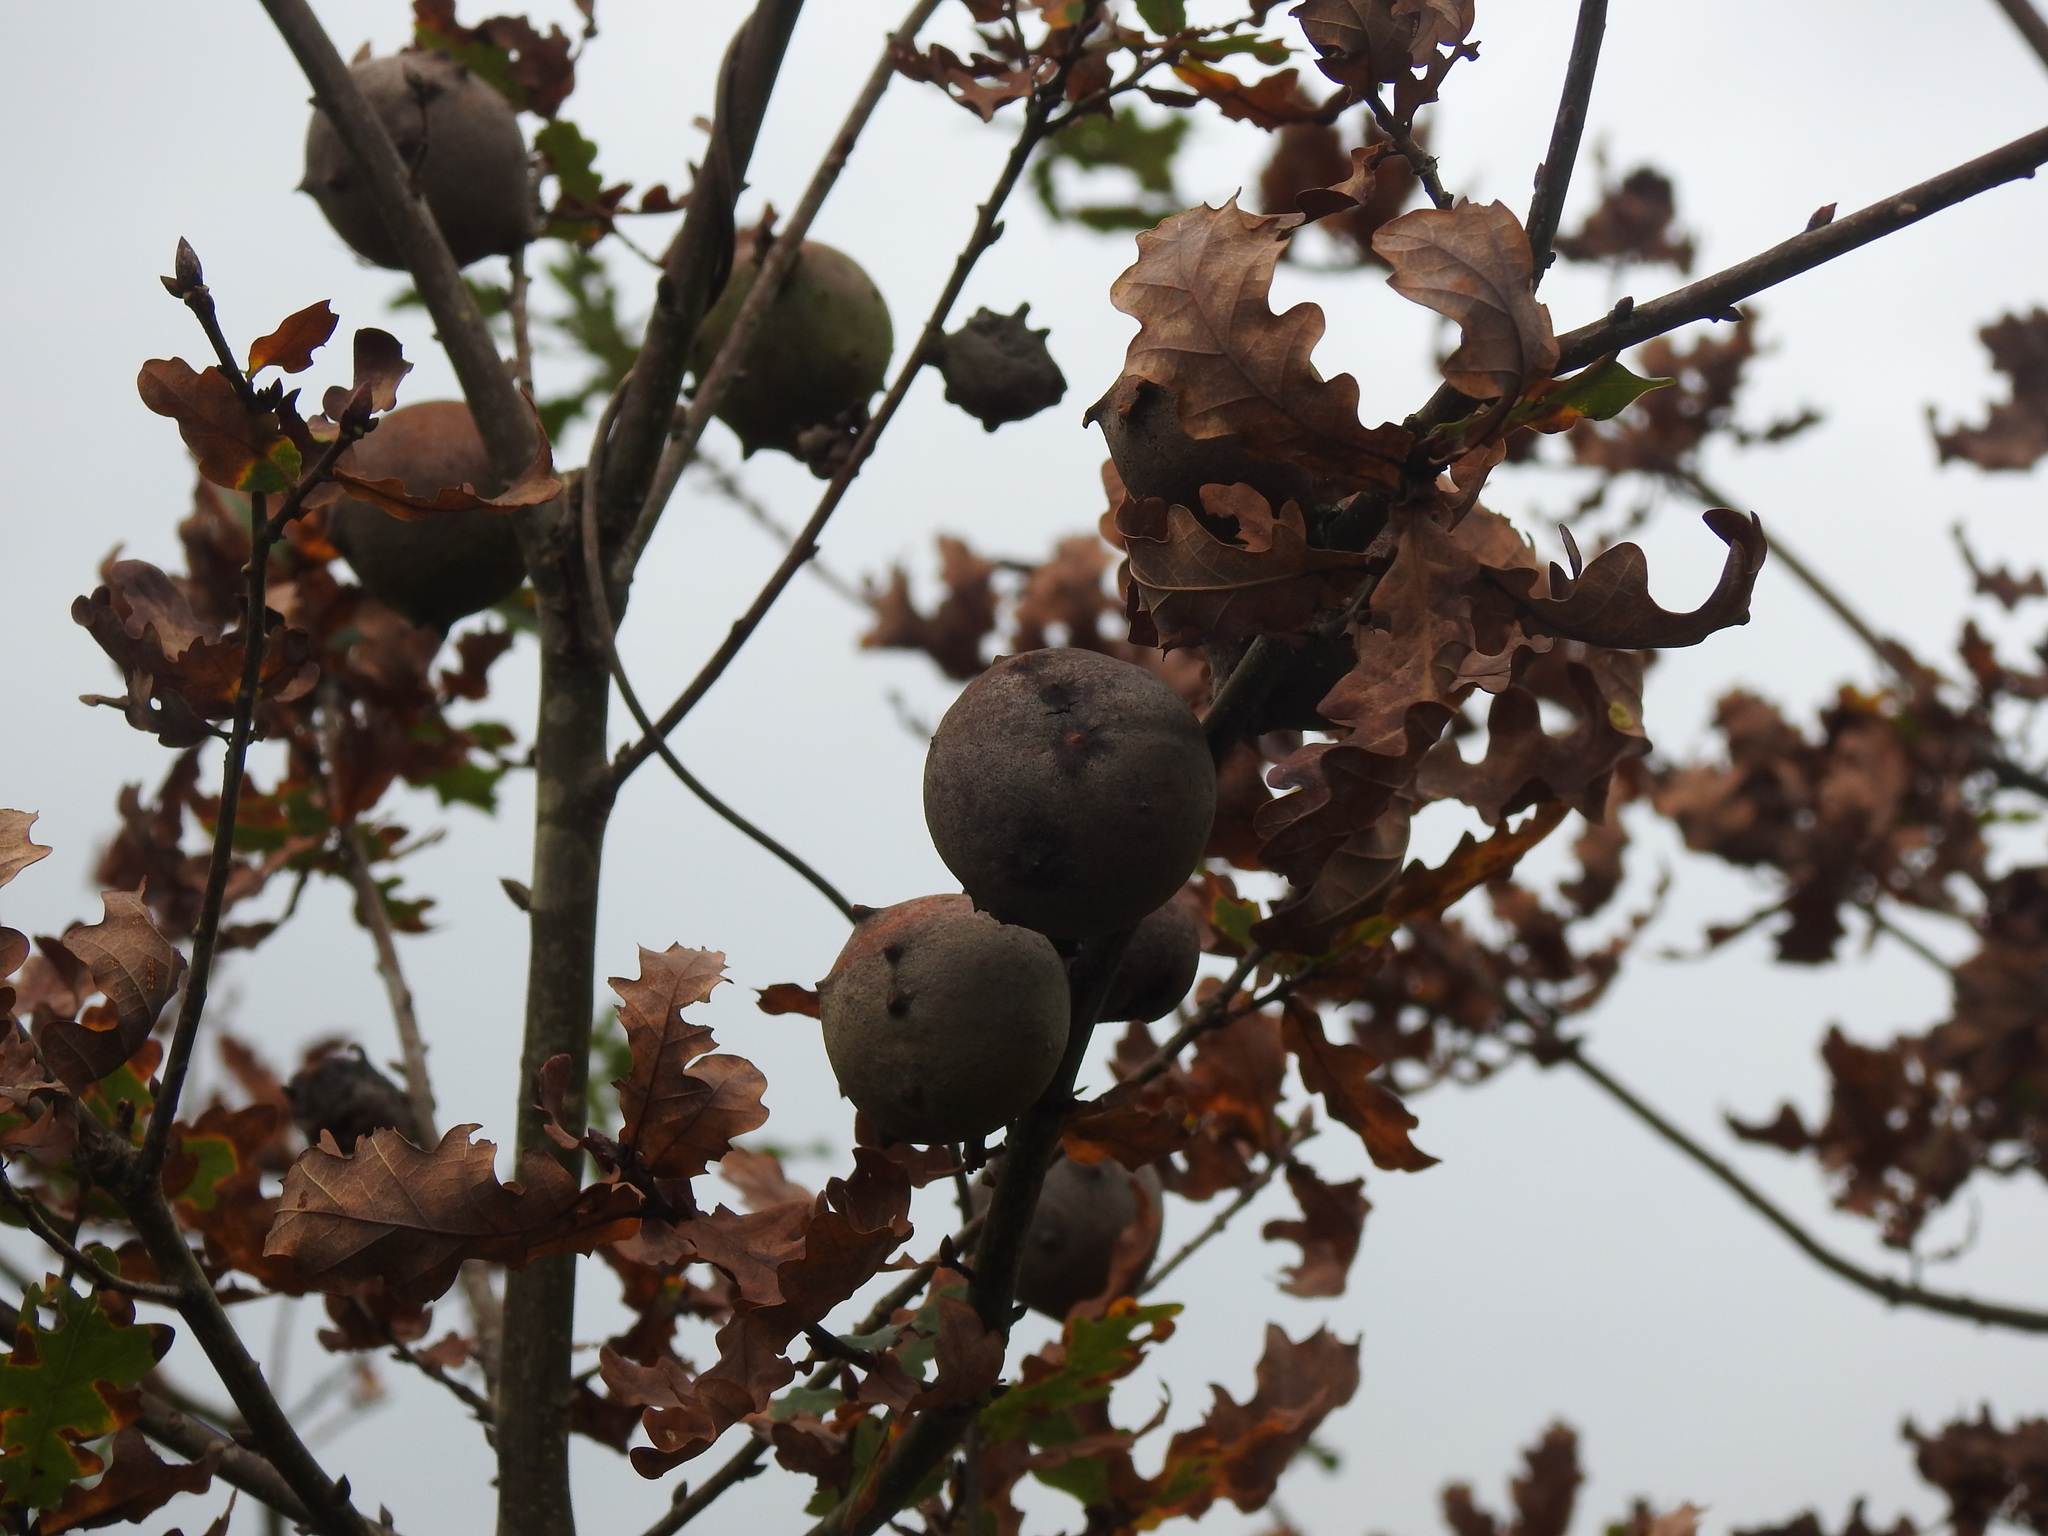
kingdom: Animalia
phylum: Arthropoda
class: Insecta
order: Hymenoptera
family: Cynipidae
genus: Andricus
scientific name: Andricus quercustozae
